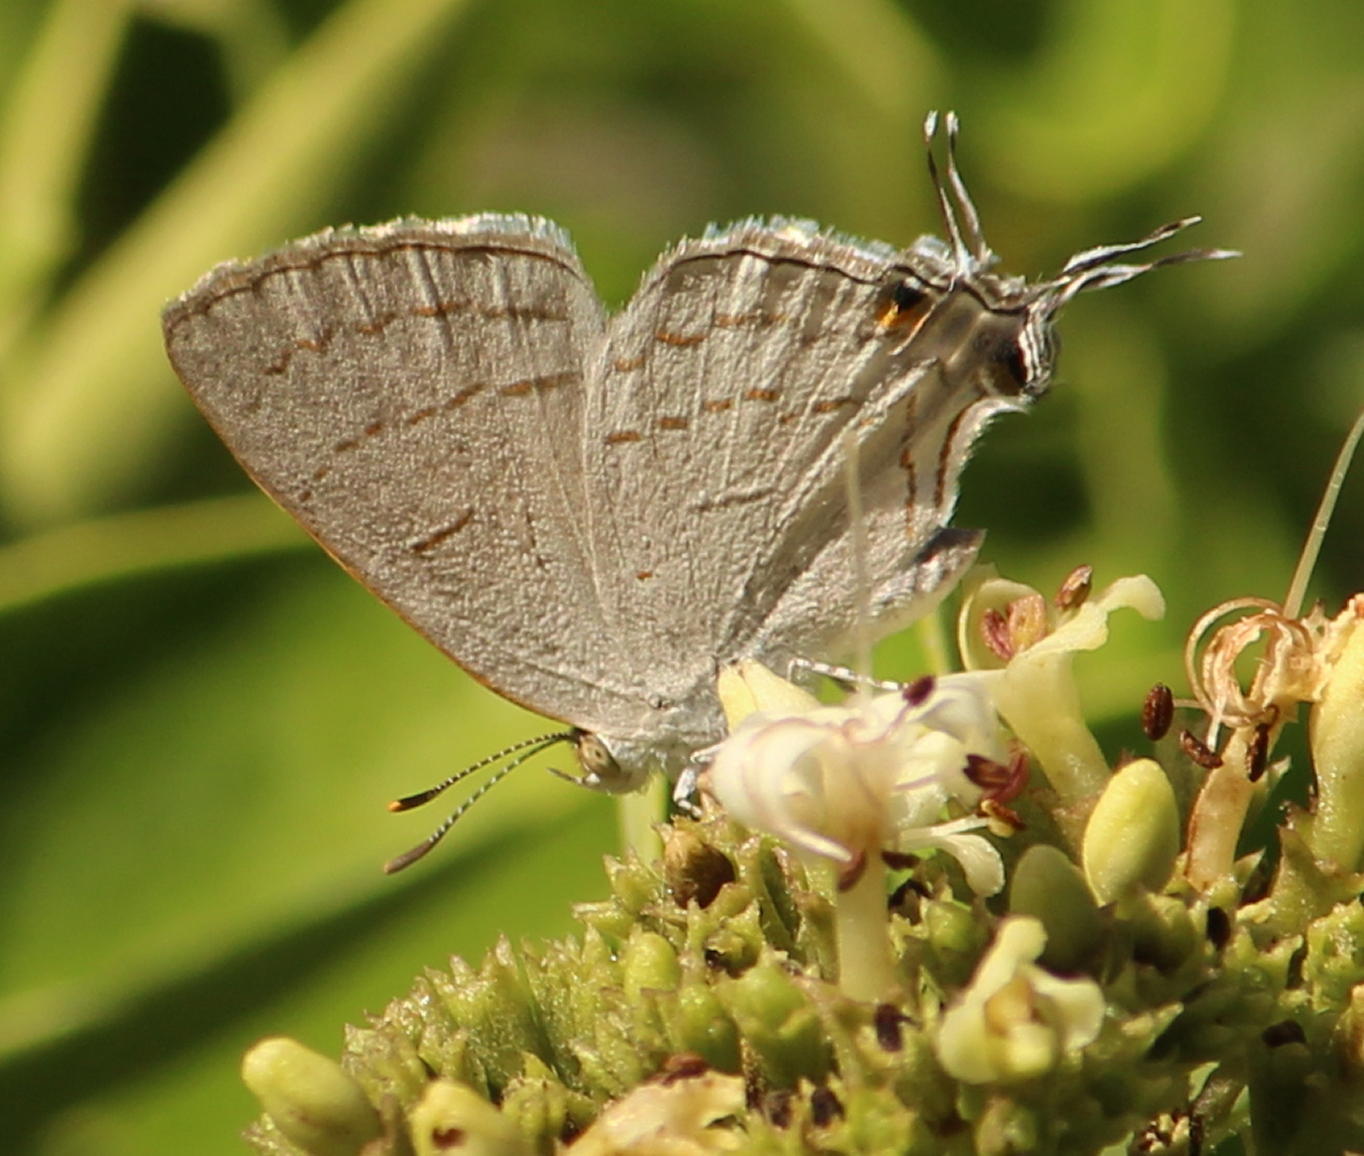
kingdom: Animalia
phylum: Arthropoda
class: Insecta
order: Lepidoptera
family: Lycaenidae
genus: Hypolycaena
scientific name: Hypolycaena philippus
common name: Common hairstreak
